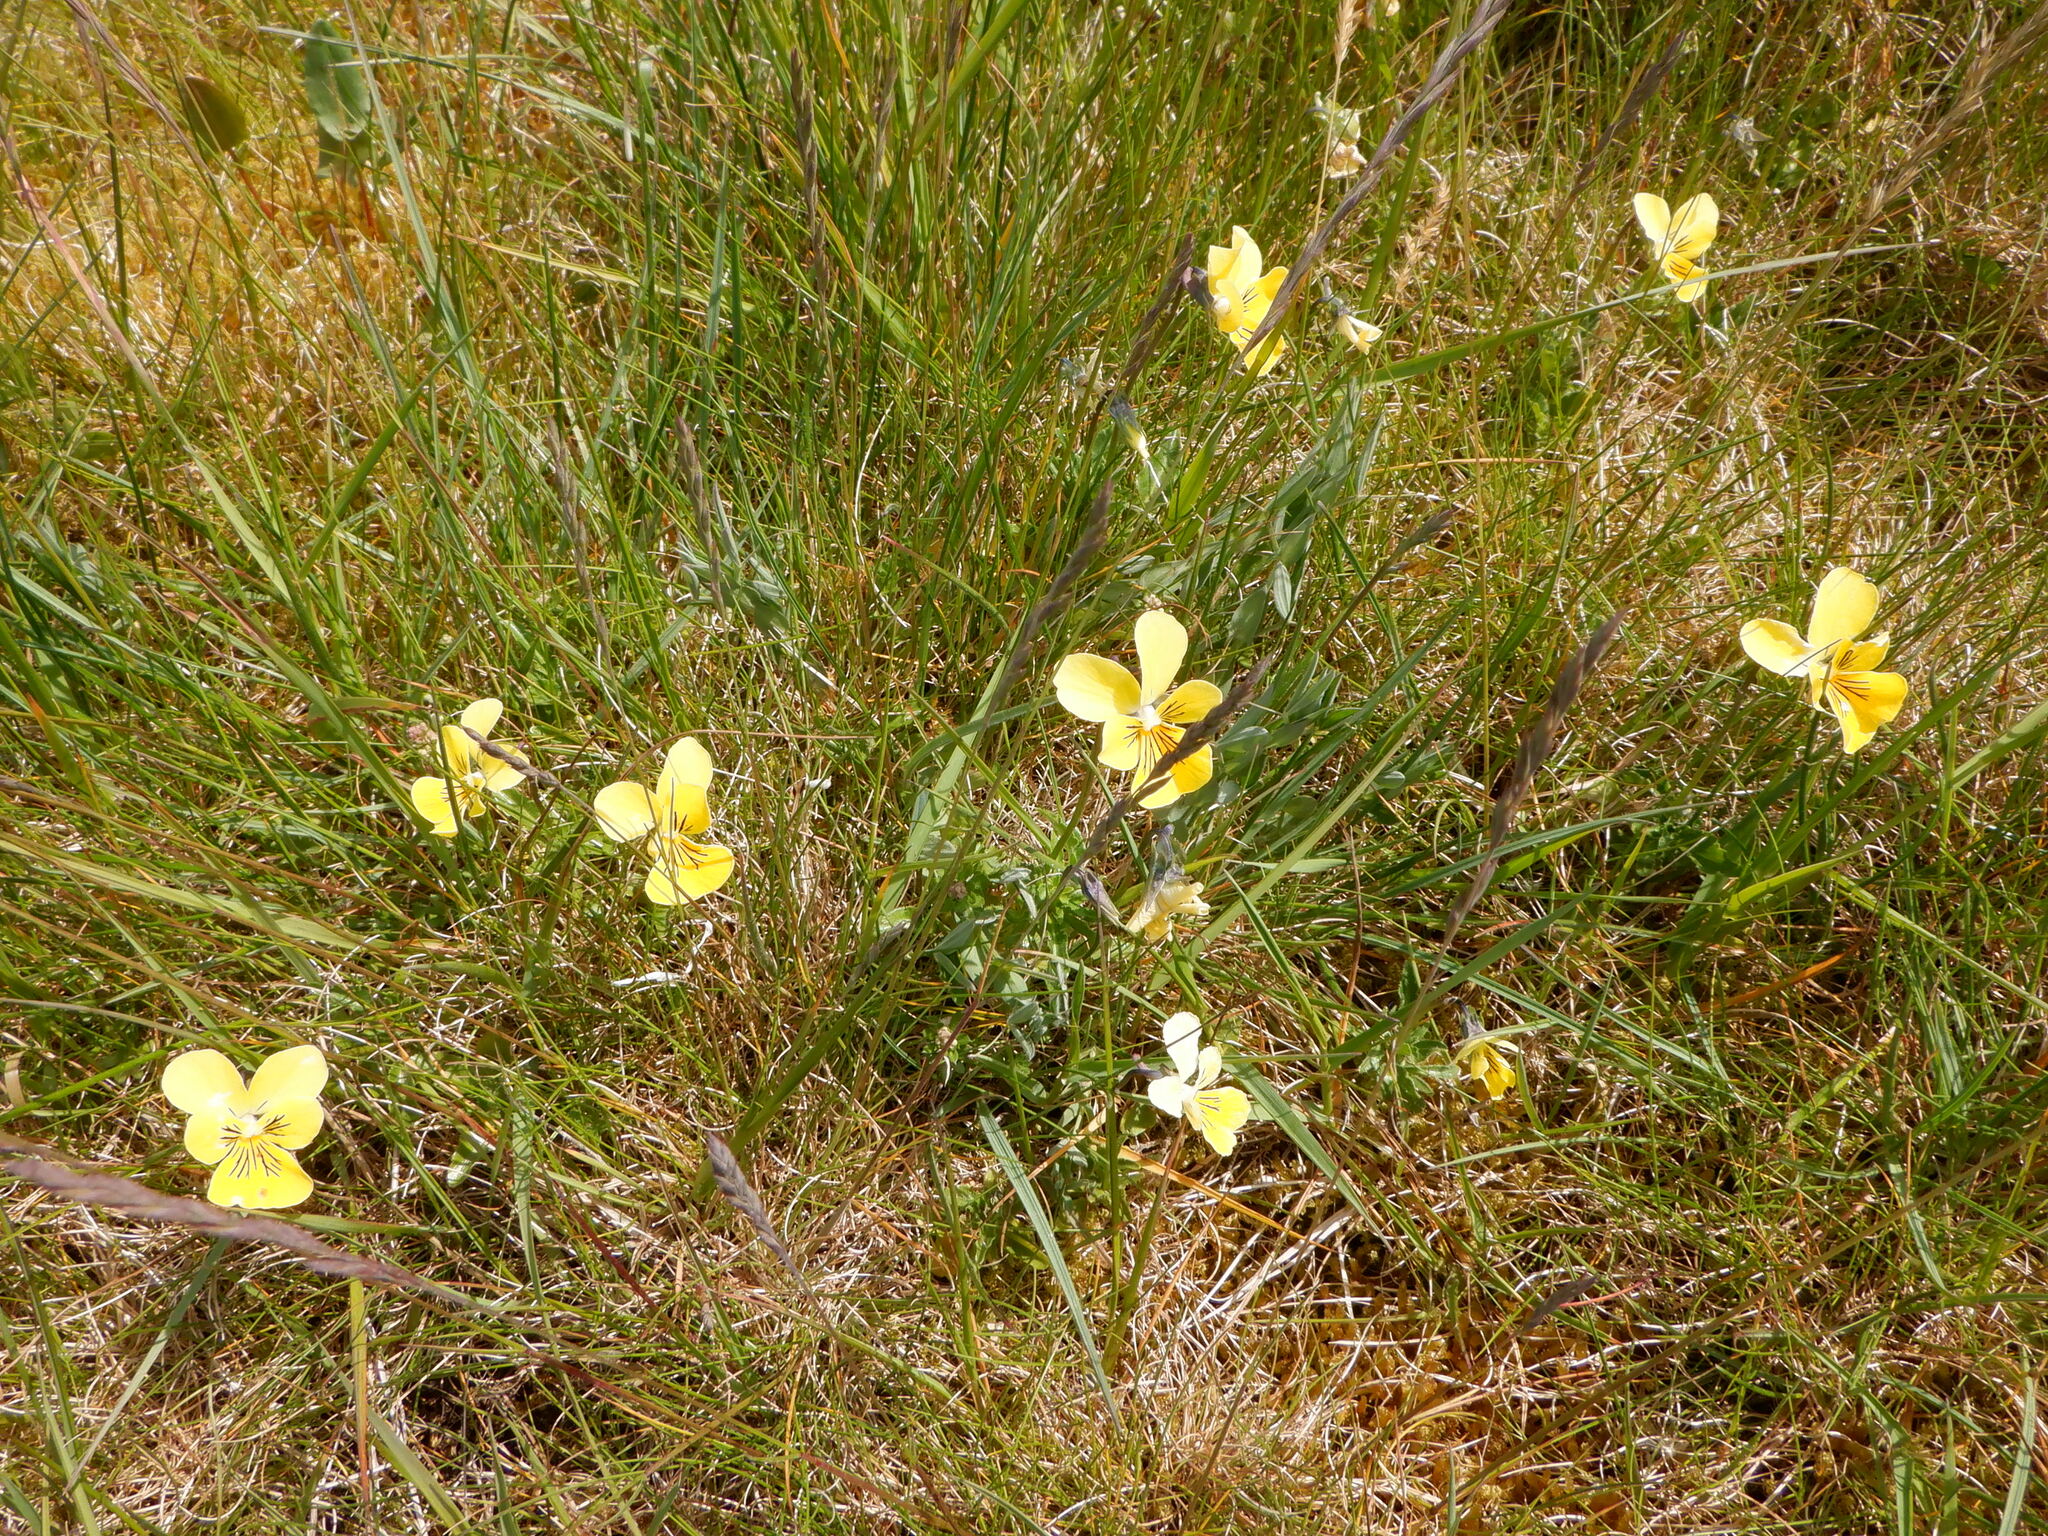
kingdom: Plantae
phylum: Tracheophyta
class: Magnoliopsida
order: Malpighiales
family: Violaceae
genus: Viola
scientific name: Viola lutea
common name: Mountain pansy
